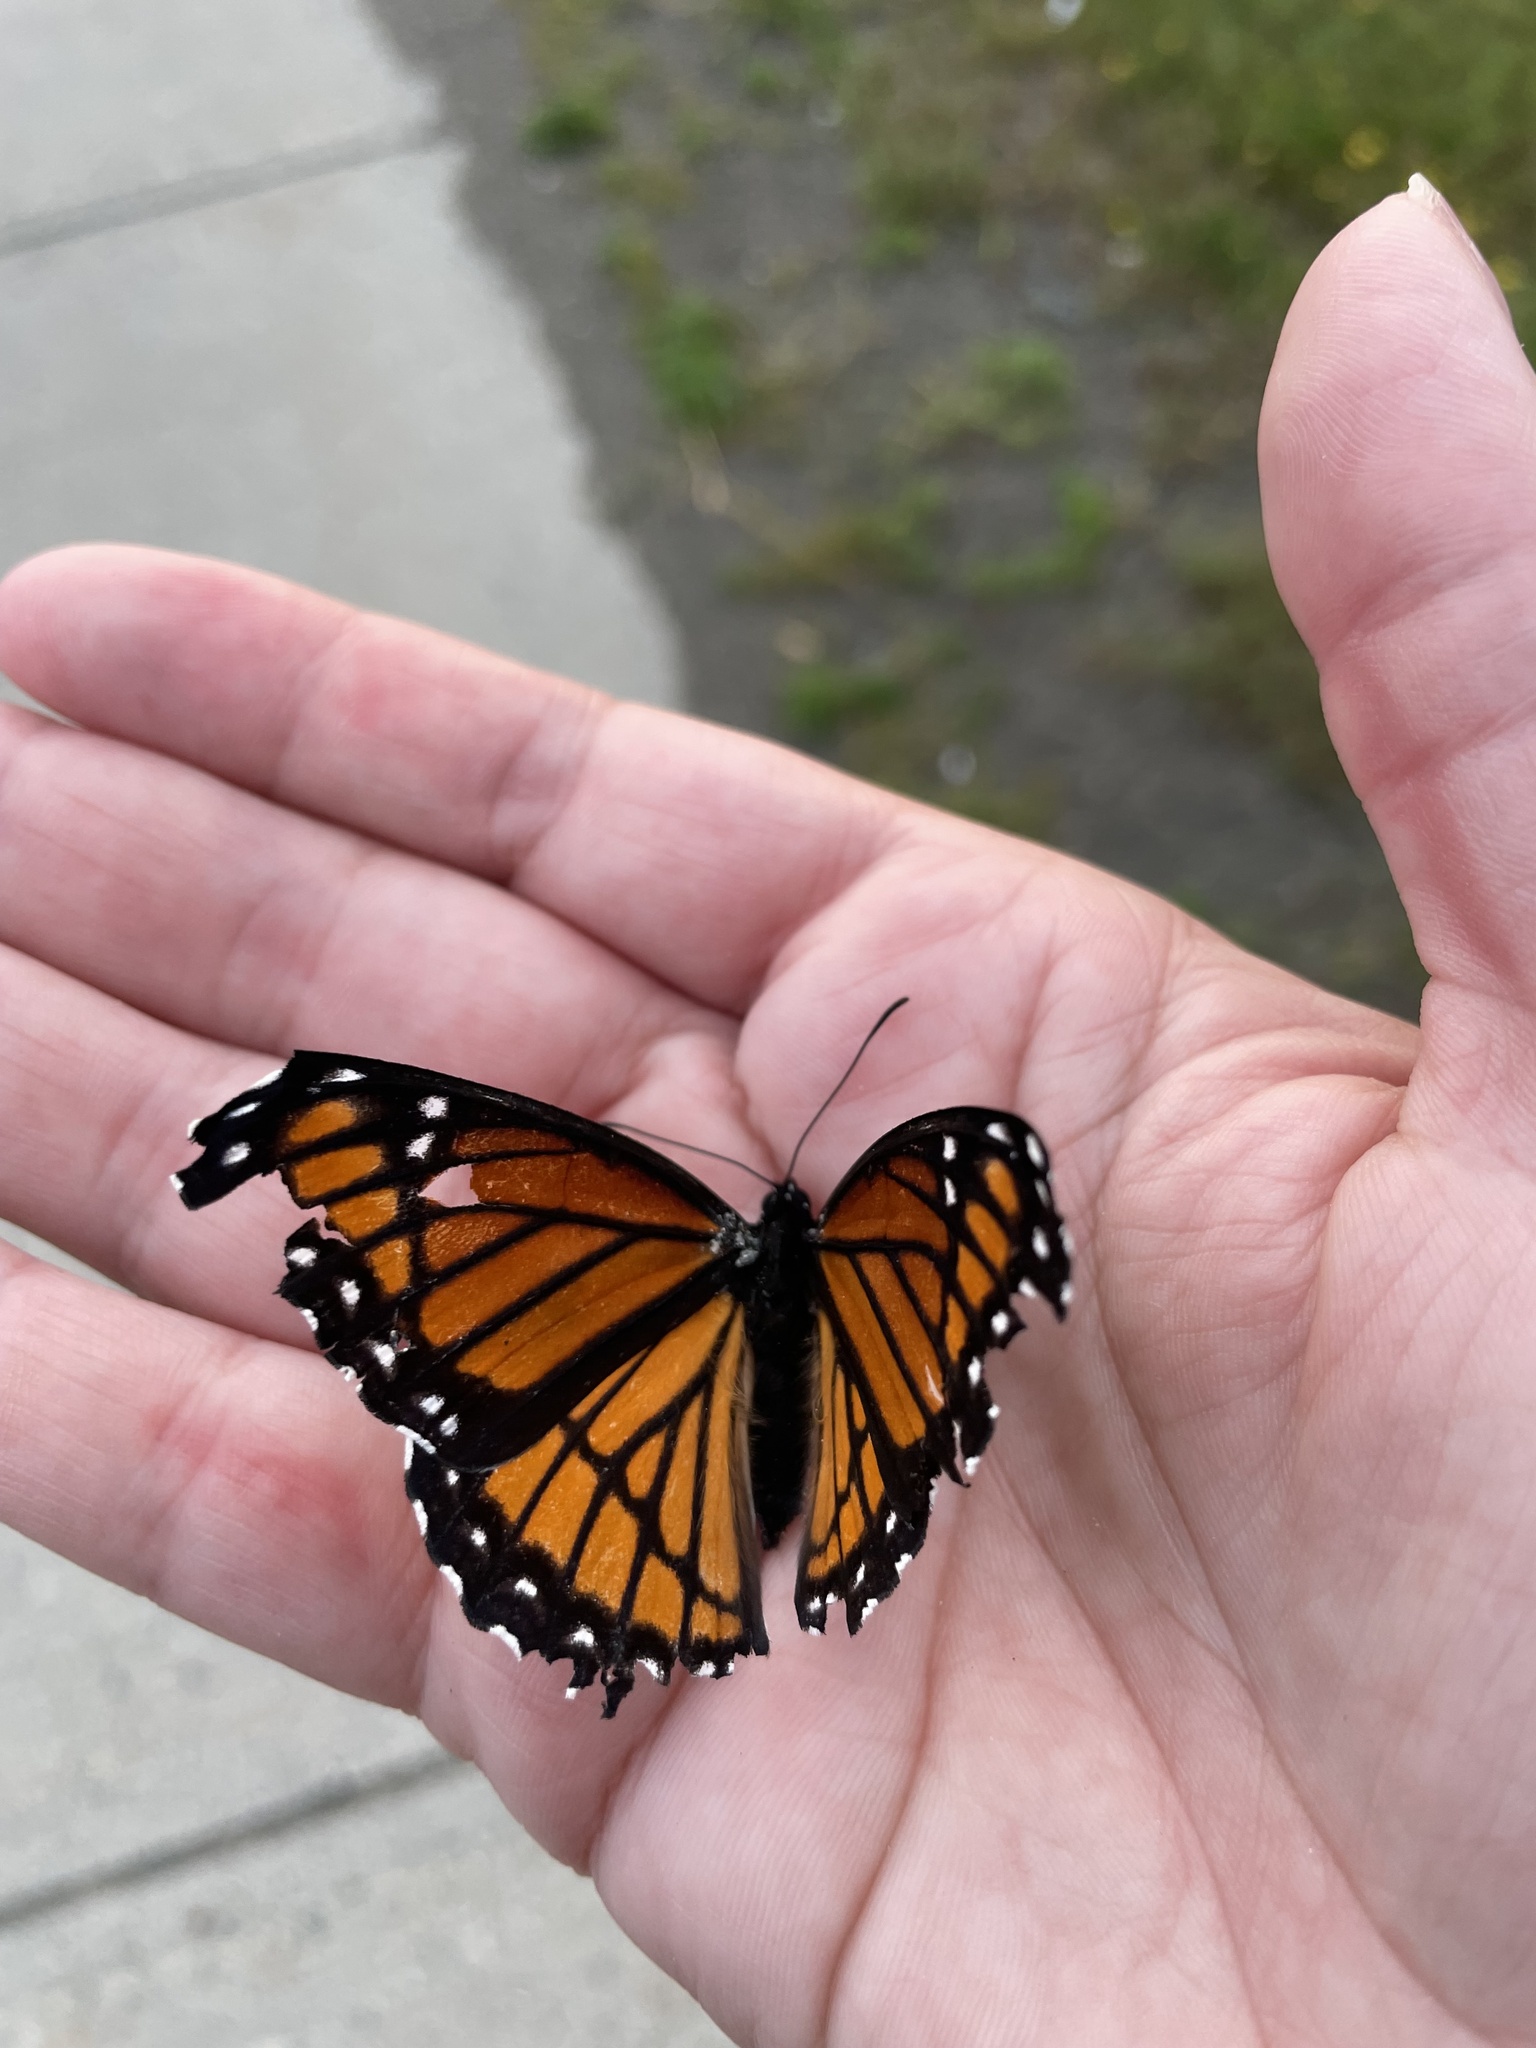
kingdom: Animalia
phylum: Arthropoda
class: Insecta
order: Lepidoptera
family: Nymphalidae
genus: Limenitis
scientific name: Limenitis archippus
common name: Viceroy
